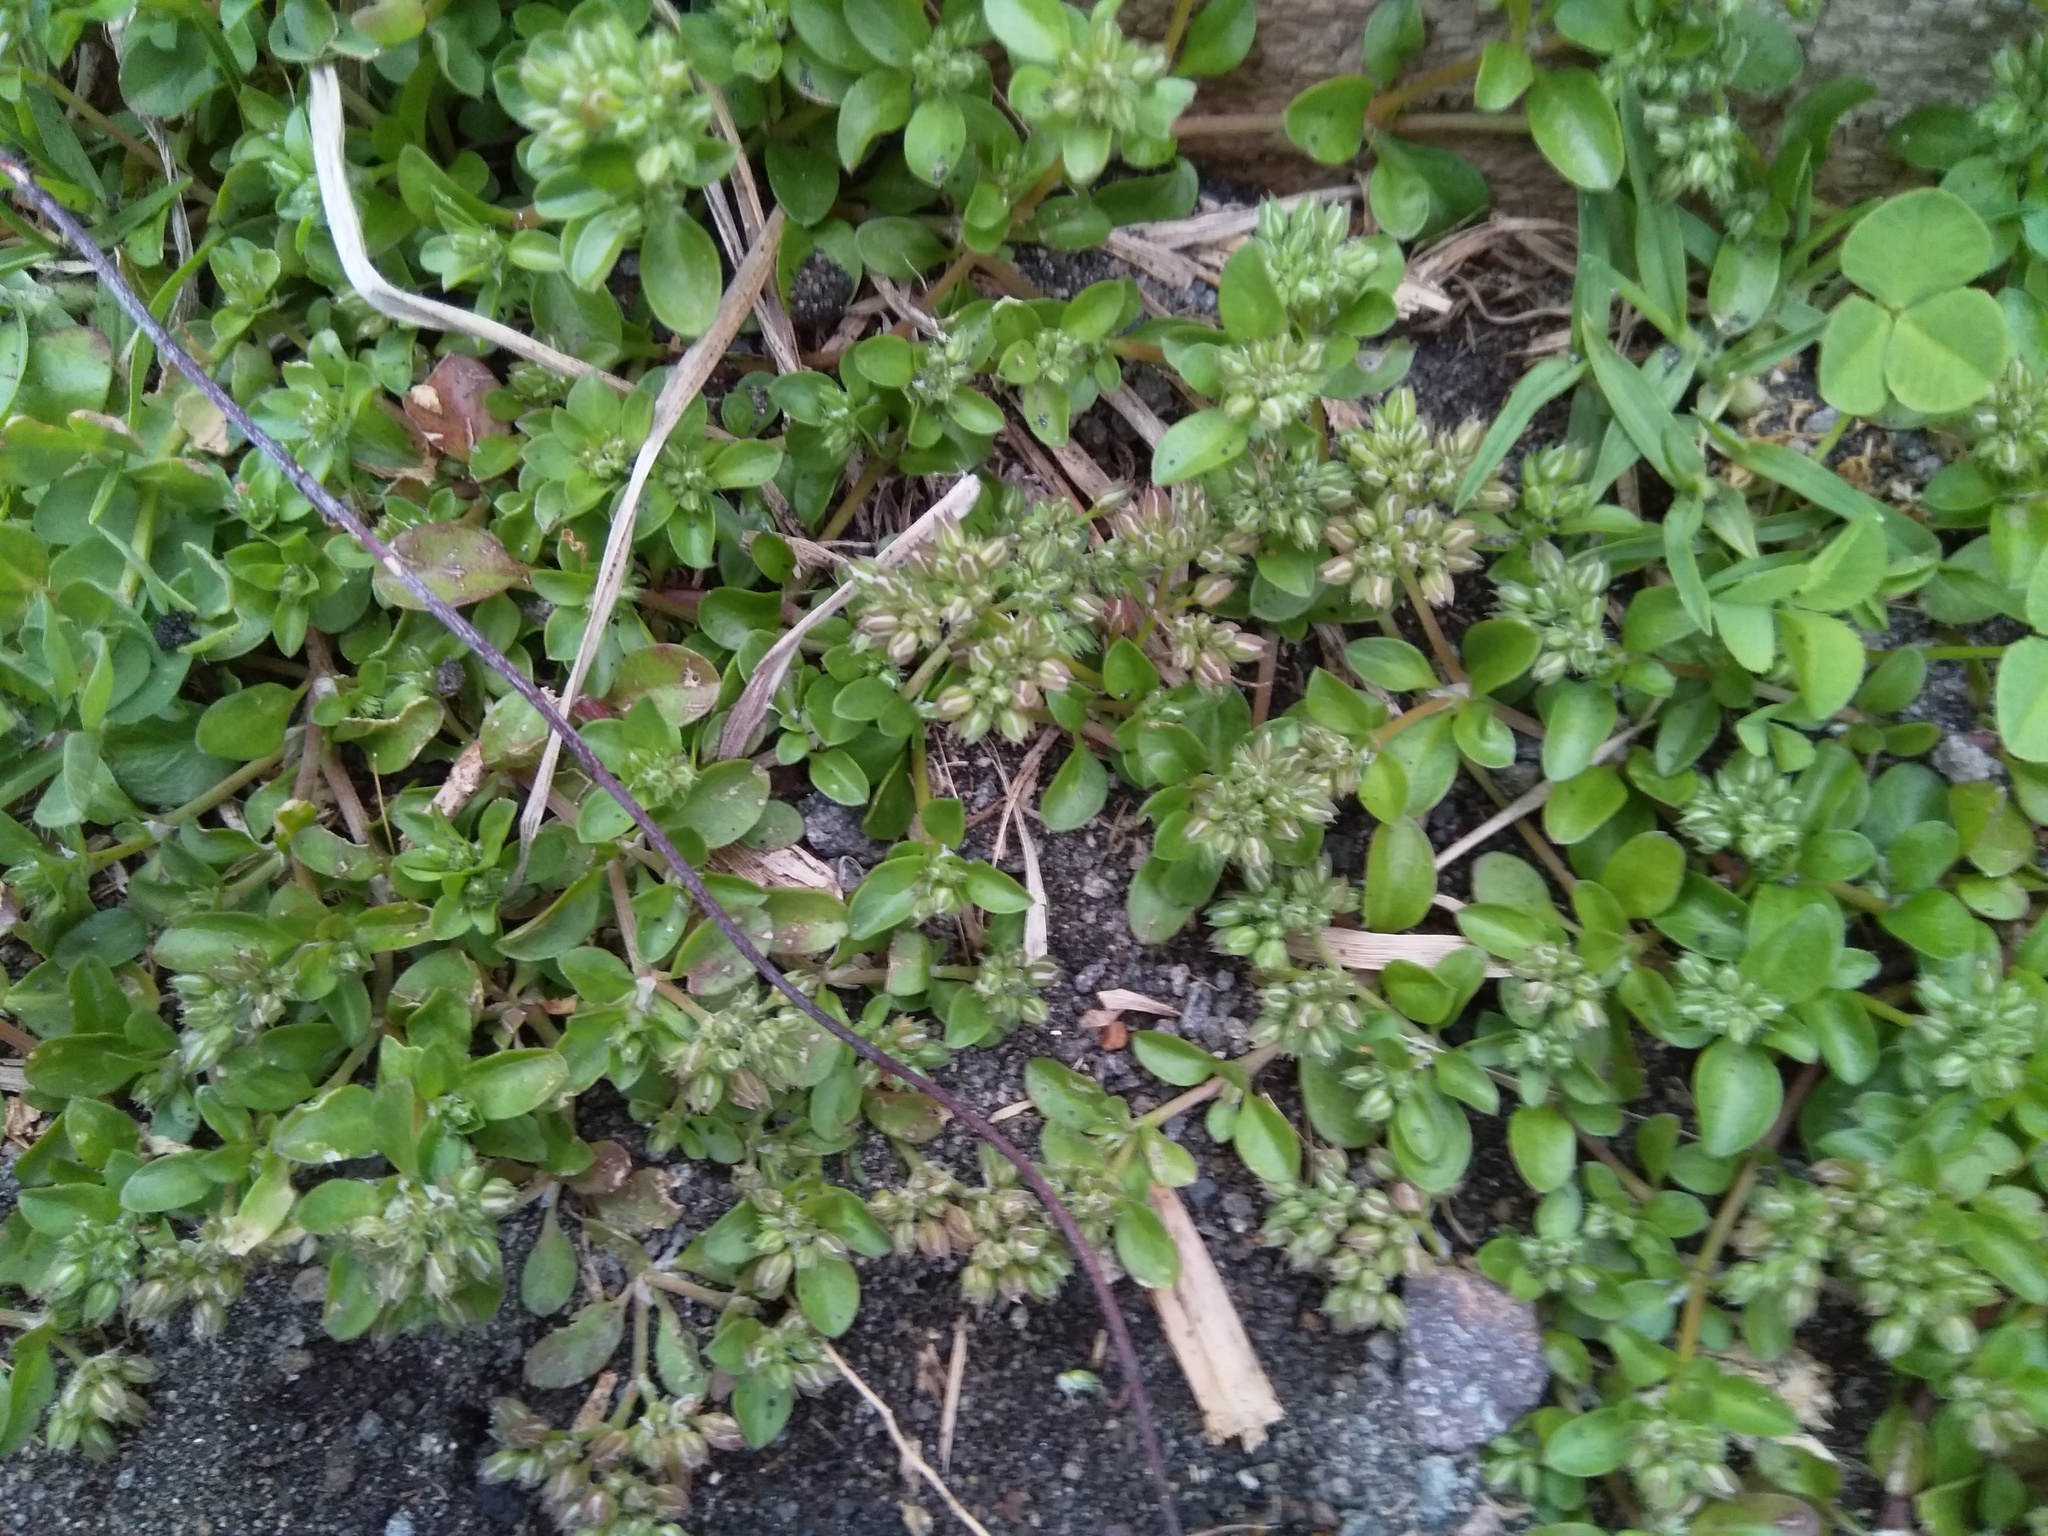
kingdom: Plantae
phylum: Tracheophyta
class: Magnoliopsida
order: Caryophyllales
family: Caryophyllaceae
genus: Polycarpon
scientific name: Polycarpon tetraphyllum
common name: Four-leaved all-seed
